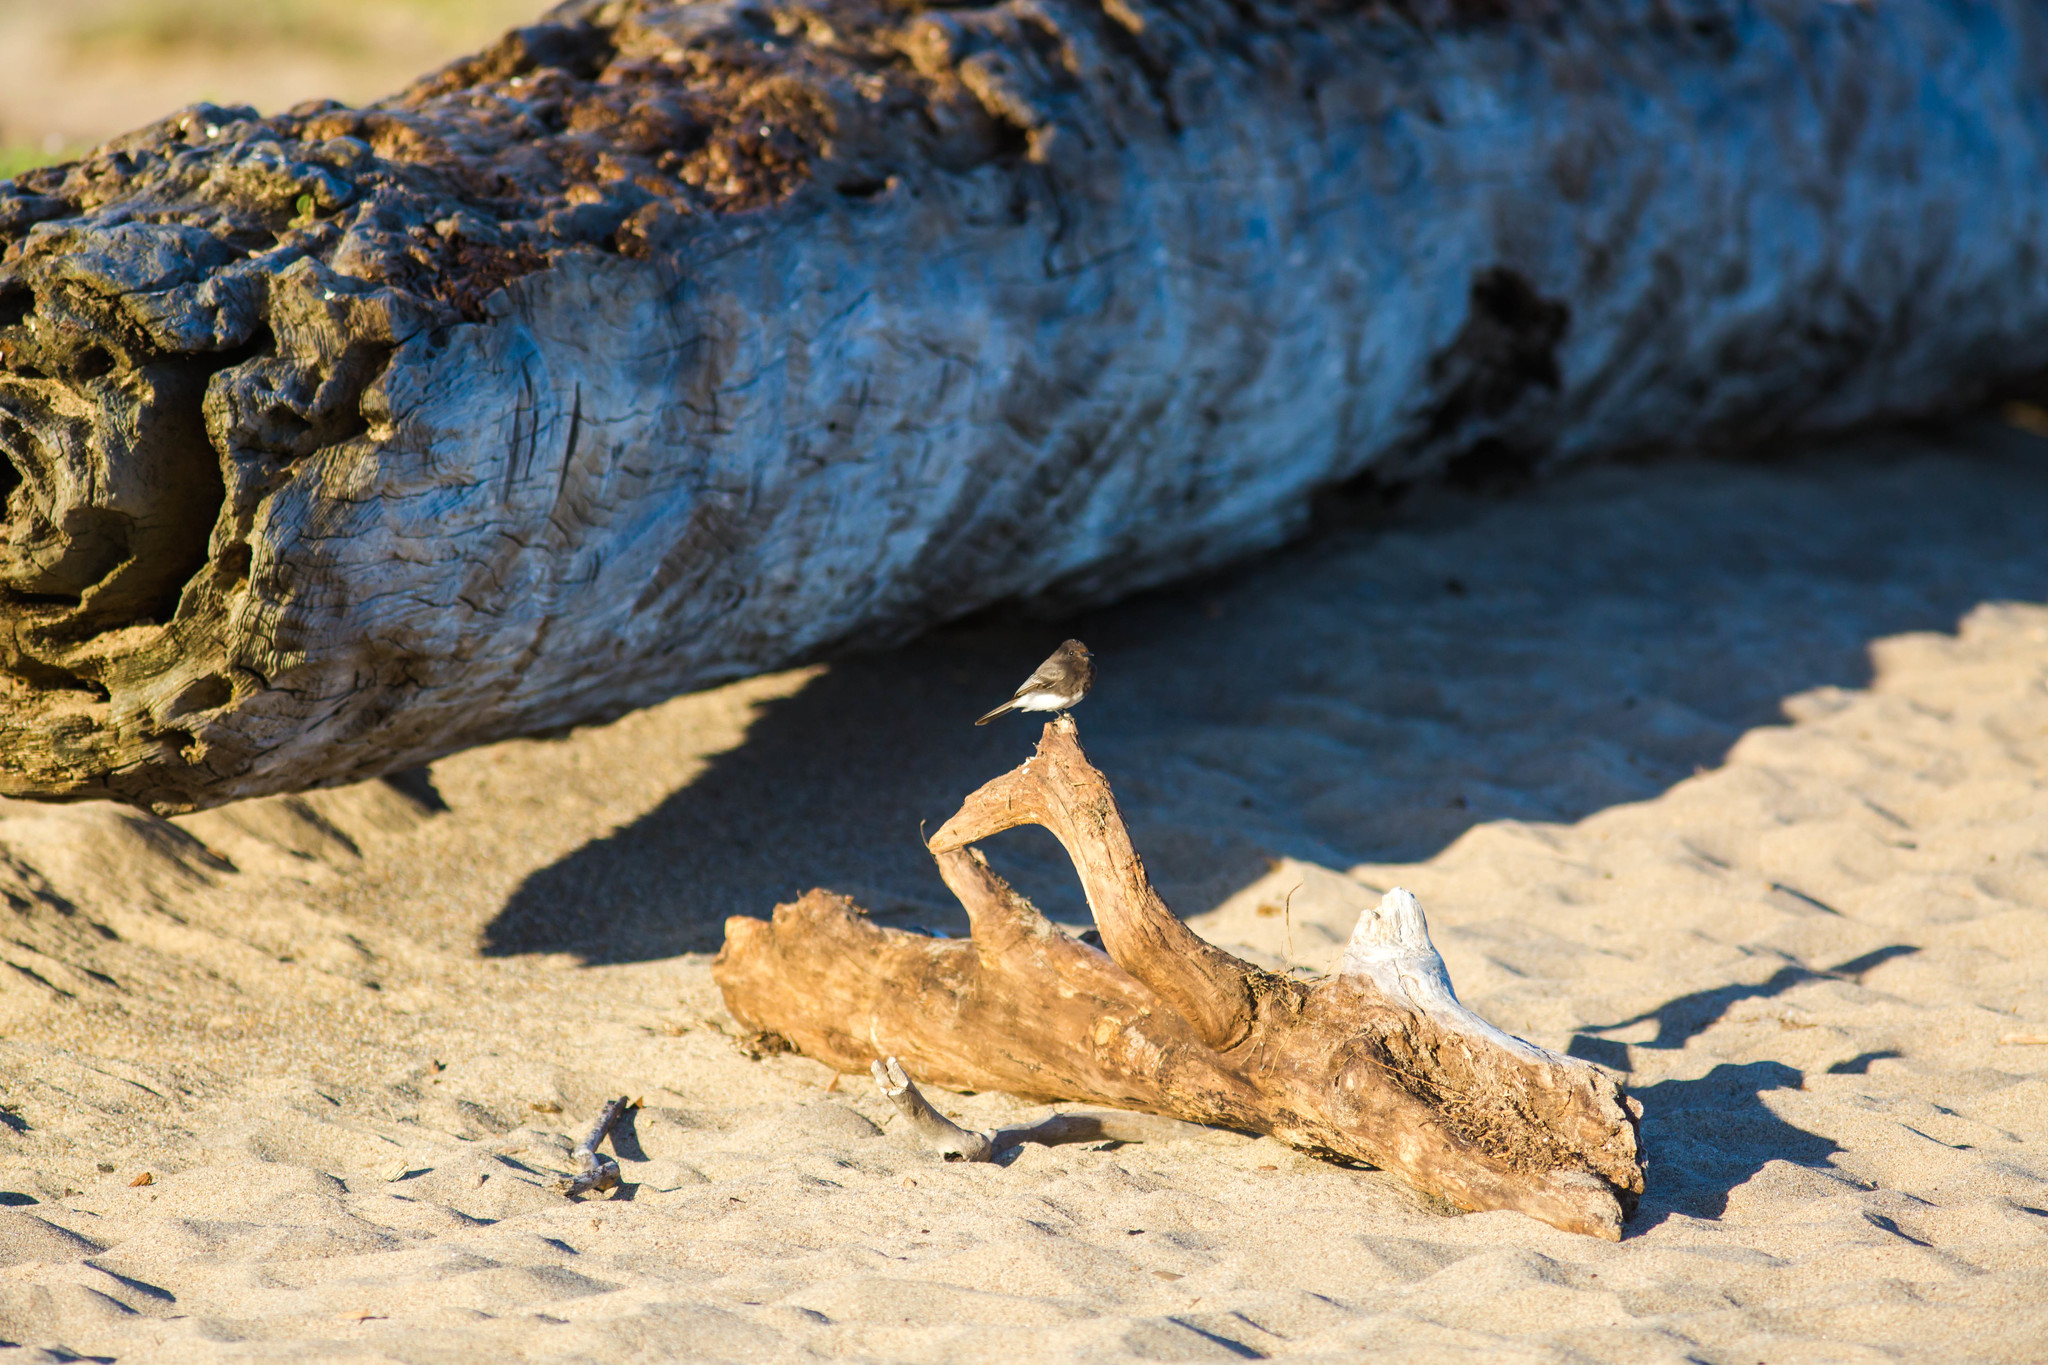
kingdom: Animalia
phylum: Chordata
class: Aves
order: Passeriformes
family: Tyrannidae
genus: Sayornis
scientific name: Sayornis nigricans
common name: Black phoebe
